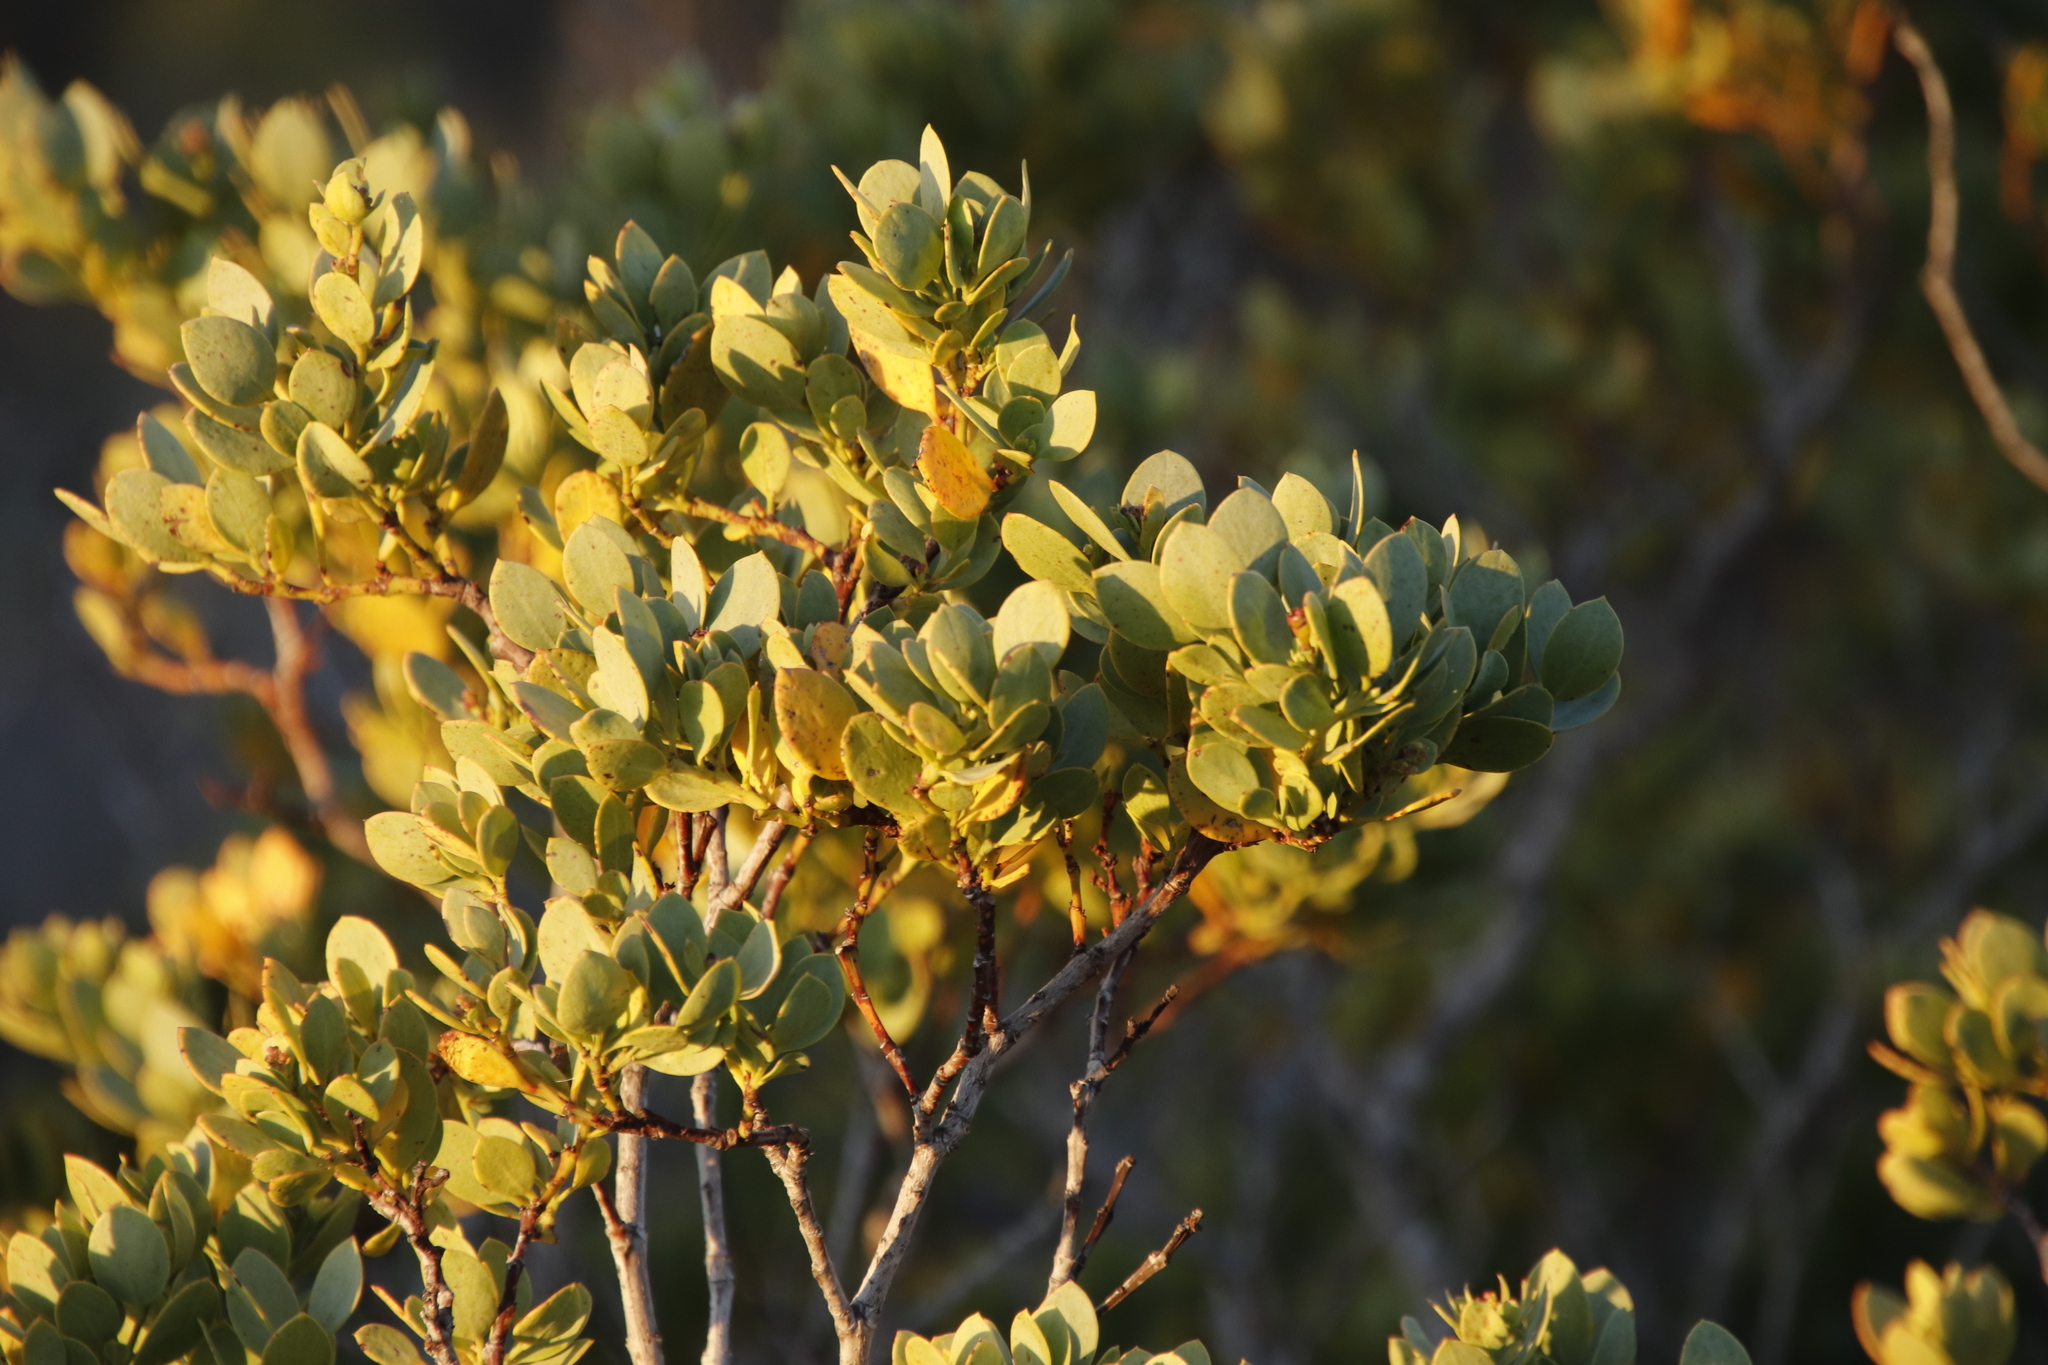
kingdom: Plantae
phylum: Tracheophyta
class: Magnoliopsida
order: Ericales
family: Ebenaceae
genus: Euclea
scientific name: Euclea racemosa
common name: Dune guarri
